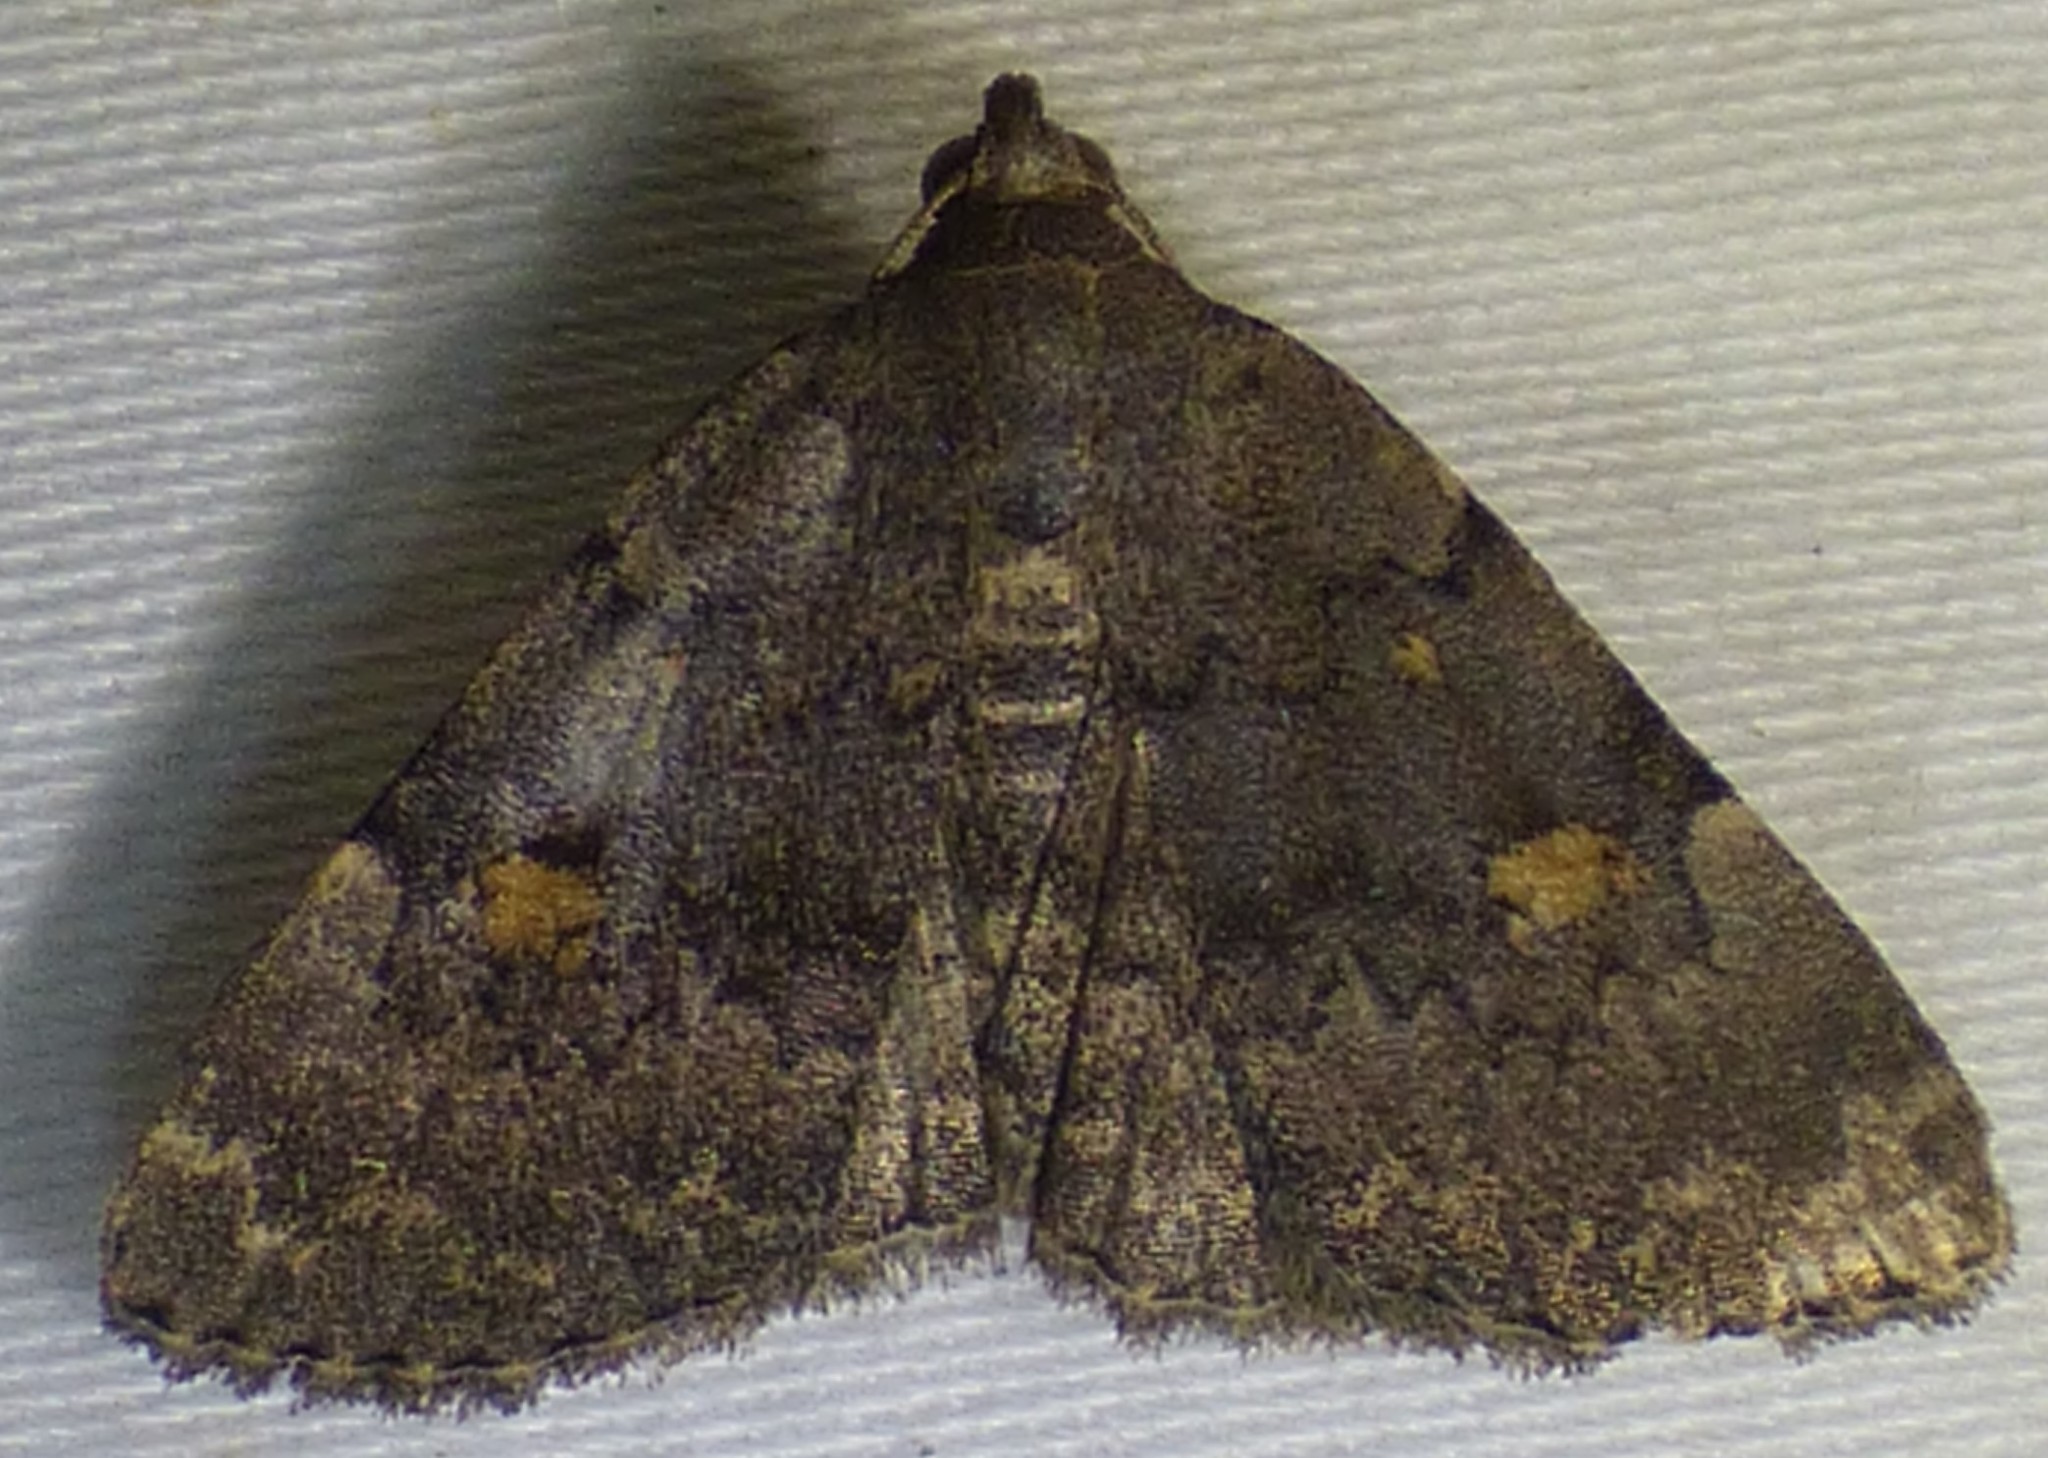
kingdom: Animalia
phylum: Arthropoda
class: Insecta
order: Lepidoptera
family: Erebidae
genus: Idia
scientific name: Idia aemula
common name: Common idia moth
